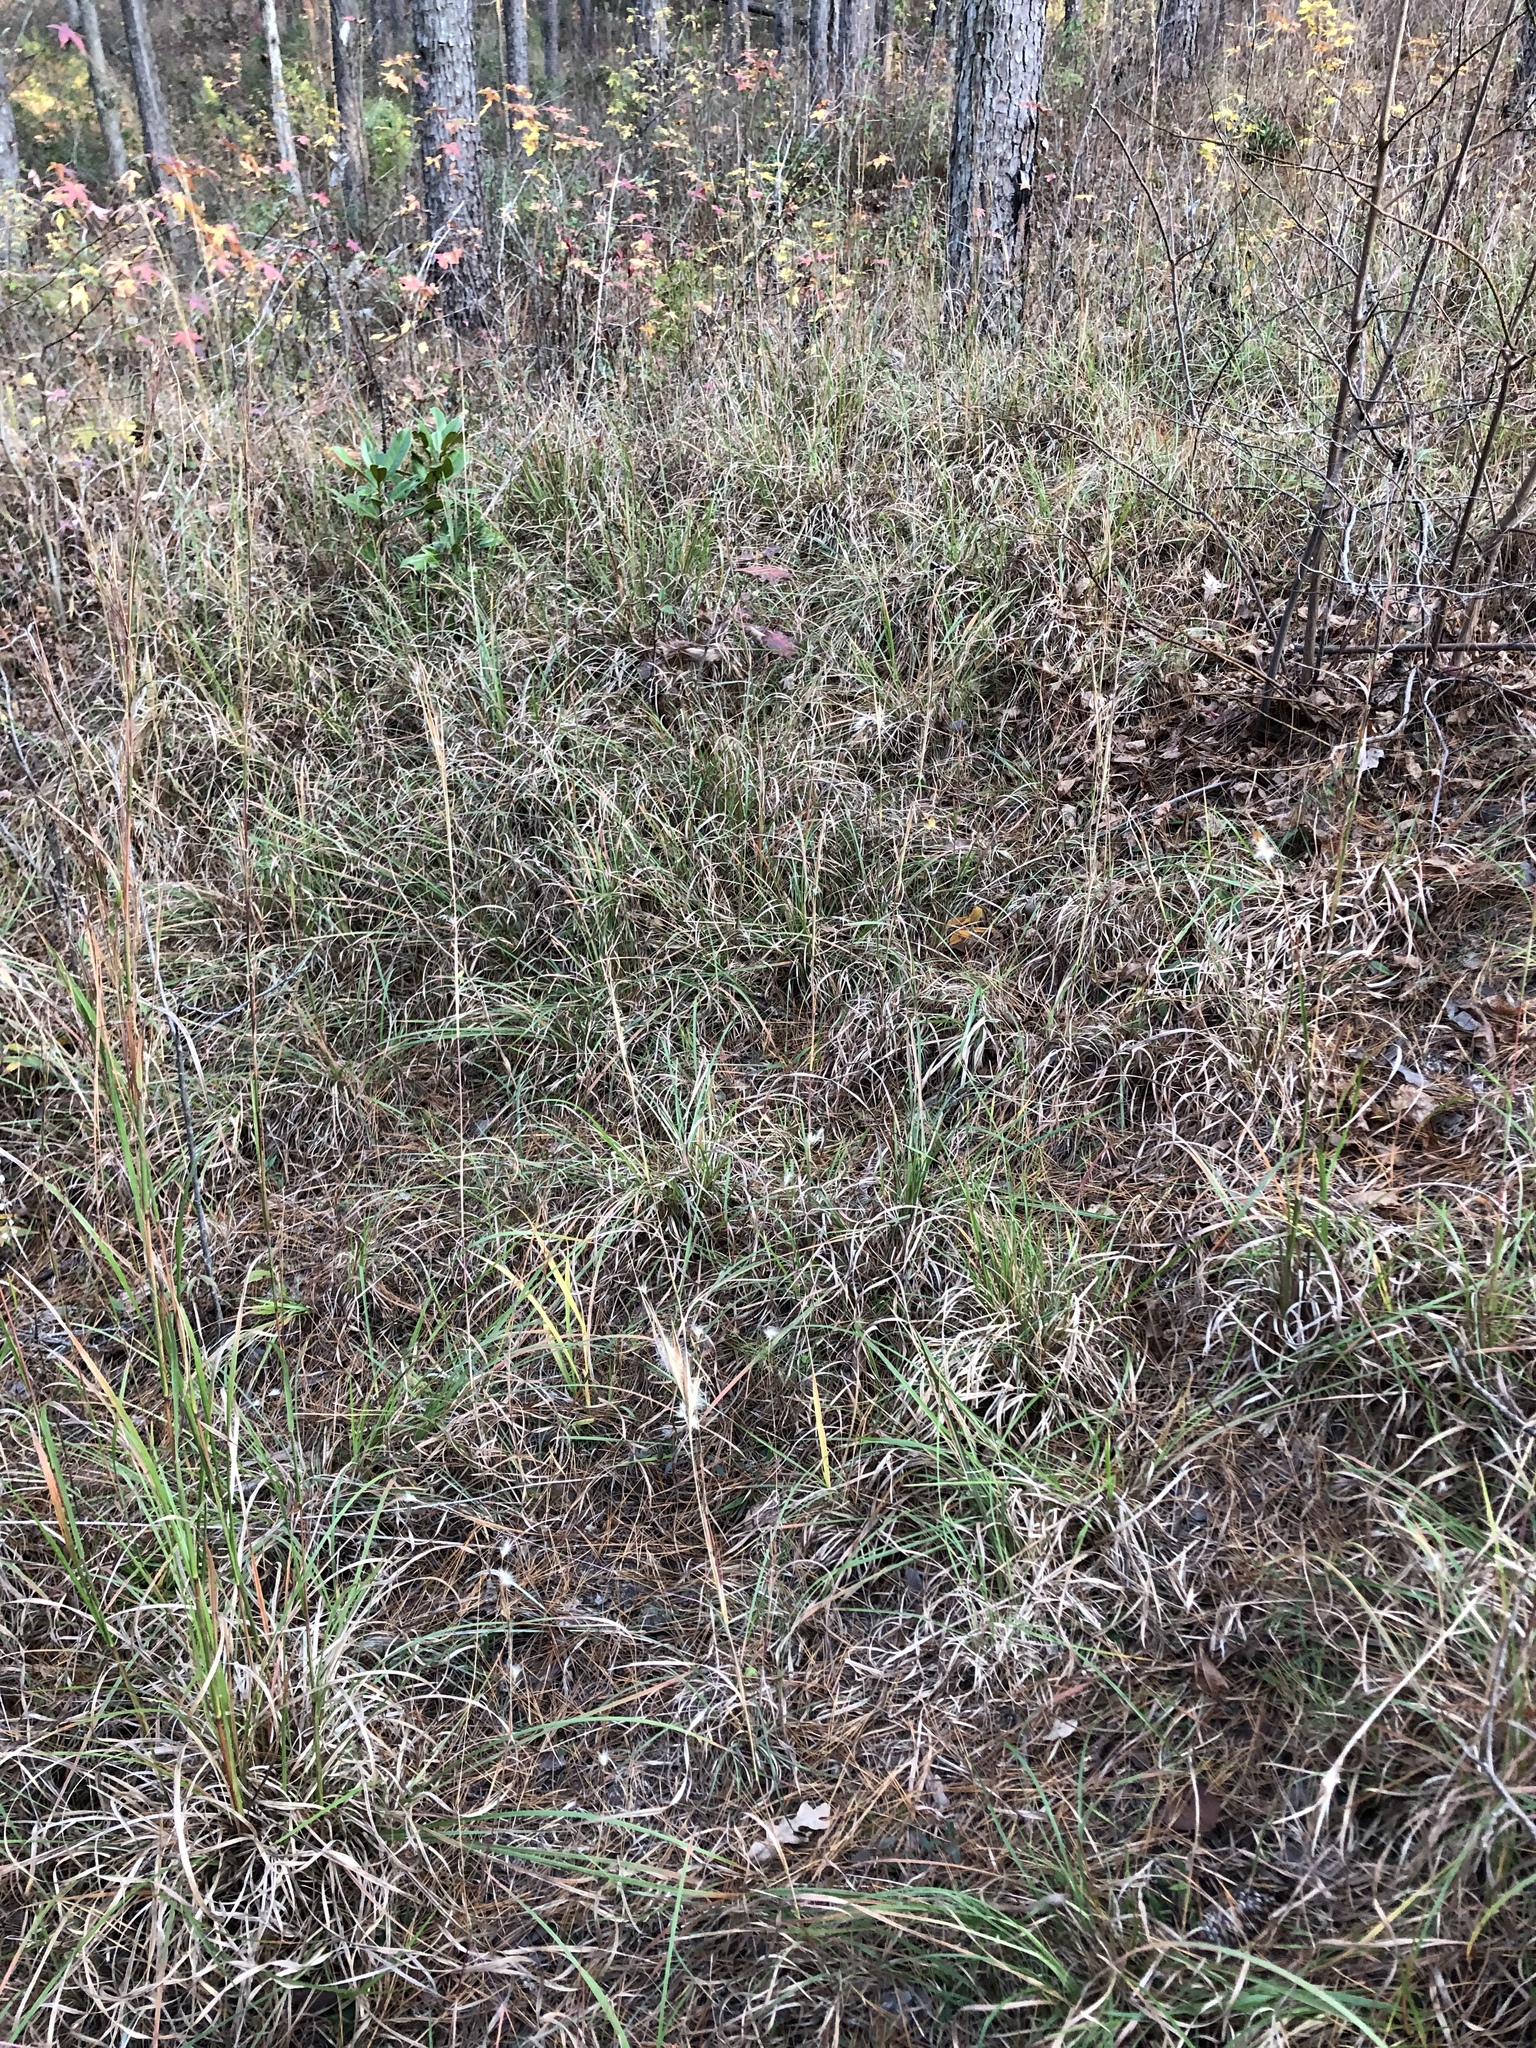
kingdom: Plantae
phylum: Tracheophyta
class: Liliopsida
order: Poales
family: Poaceae
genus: Andropogon
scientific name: Andropogon gyrans
